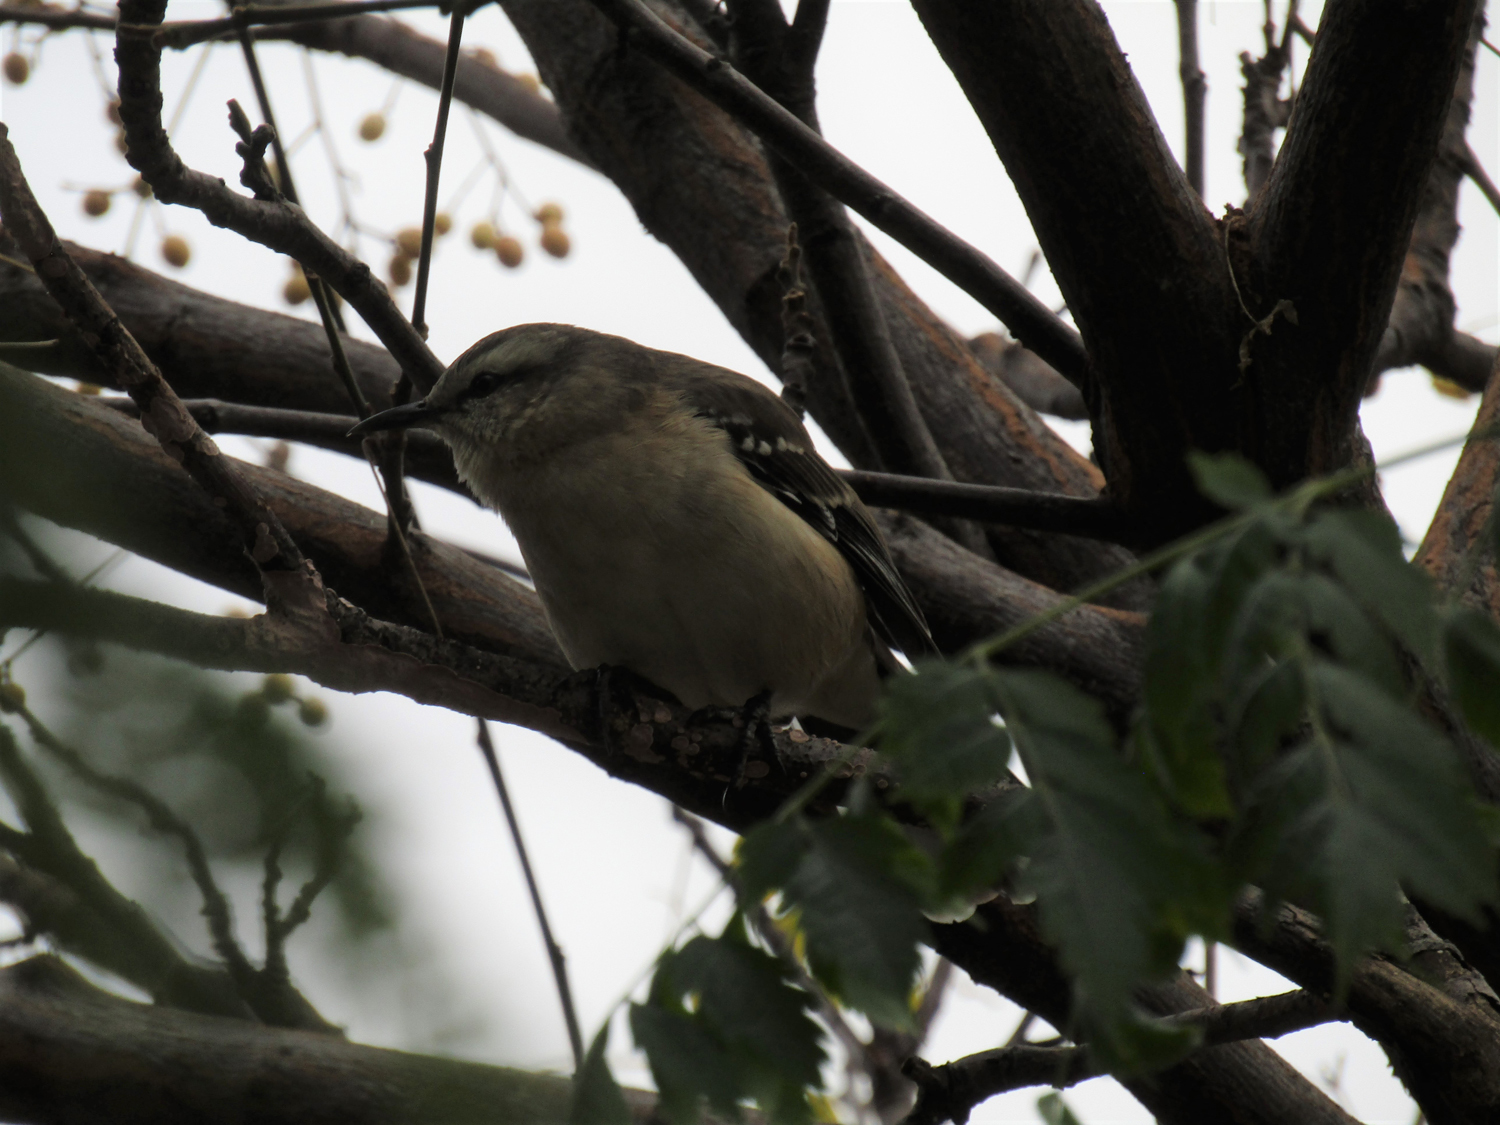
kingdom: Animalia
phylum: Chordata
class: Aves
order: Passeriformes
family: Mimidae
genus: Mimus
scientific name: Mimus saturninus
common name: Chalk-browed mockingbird
